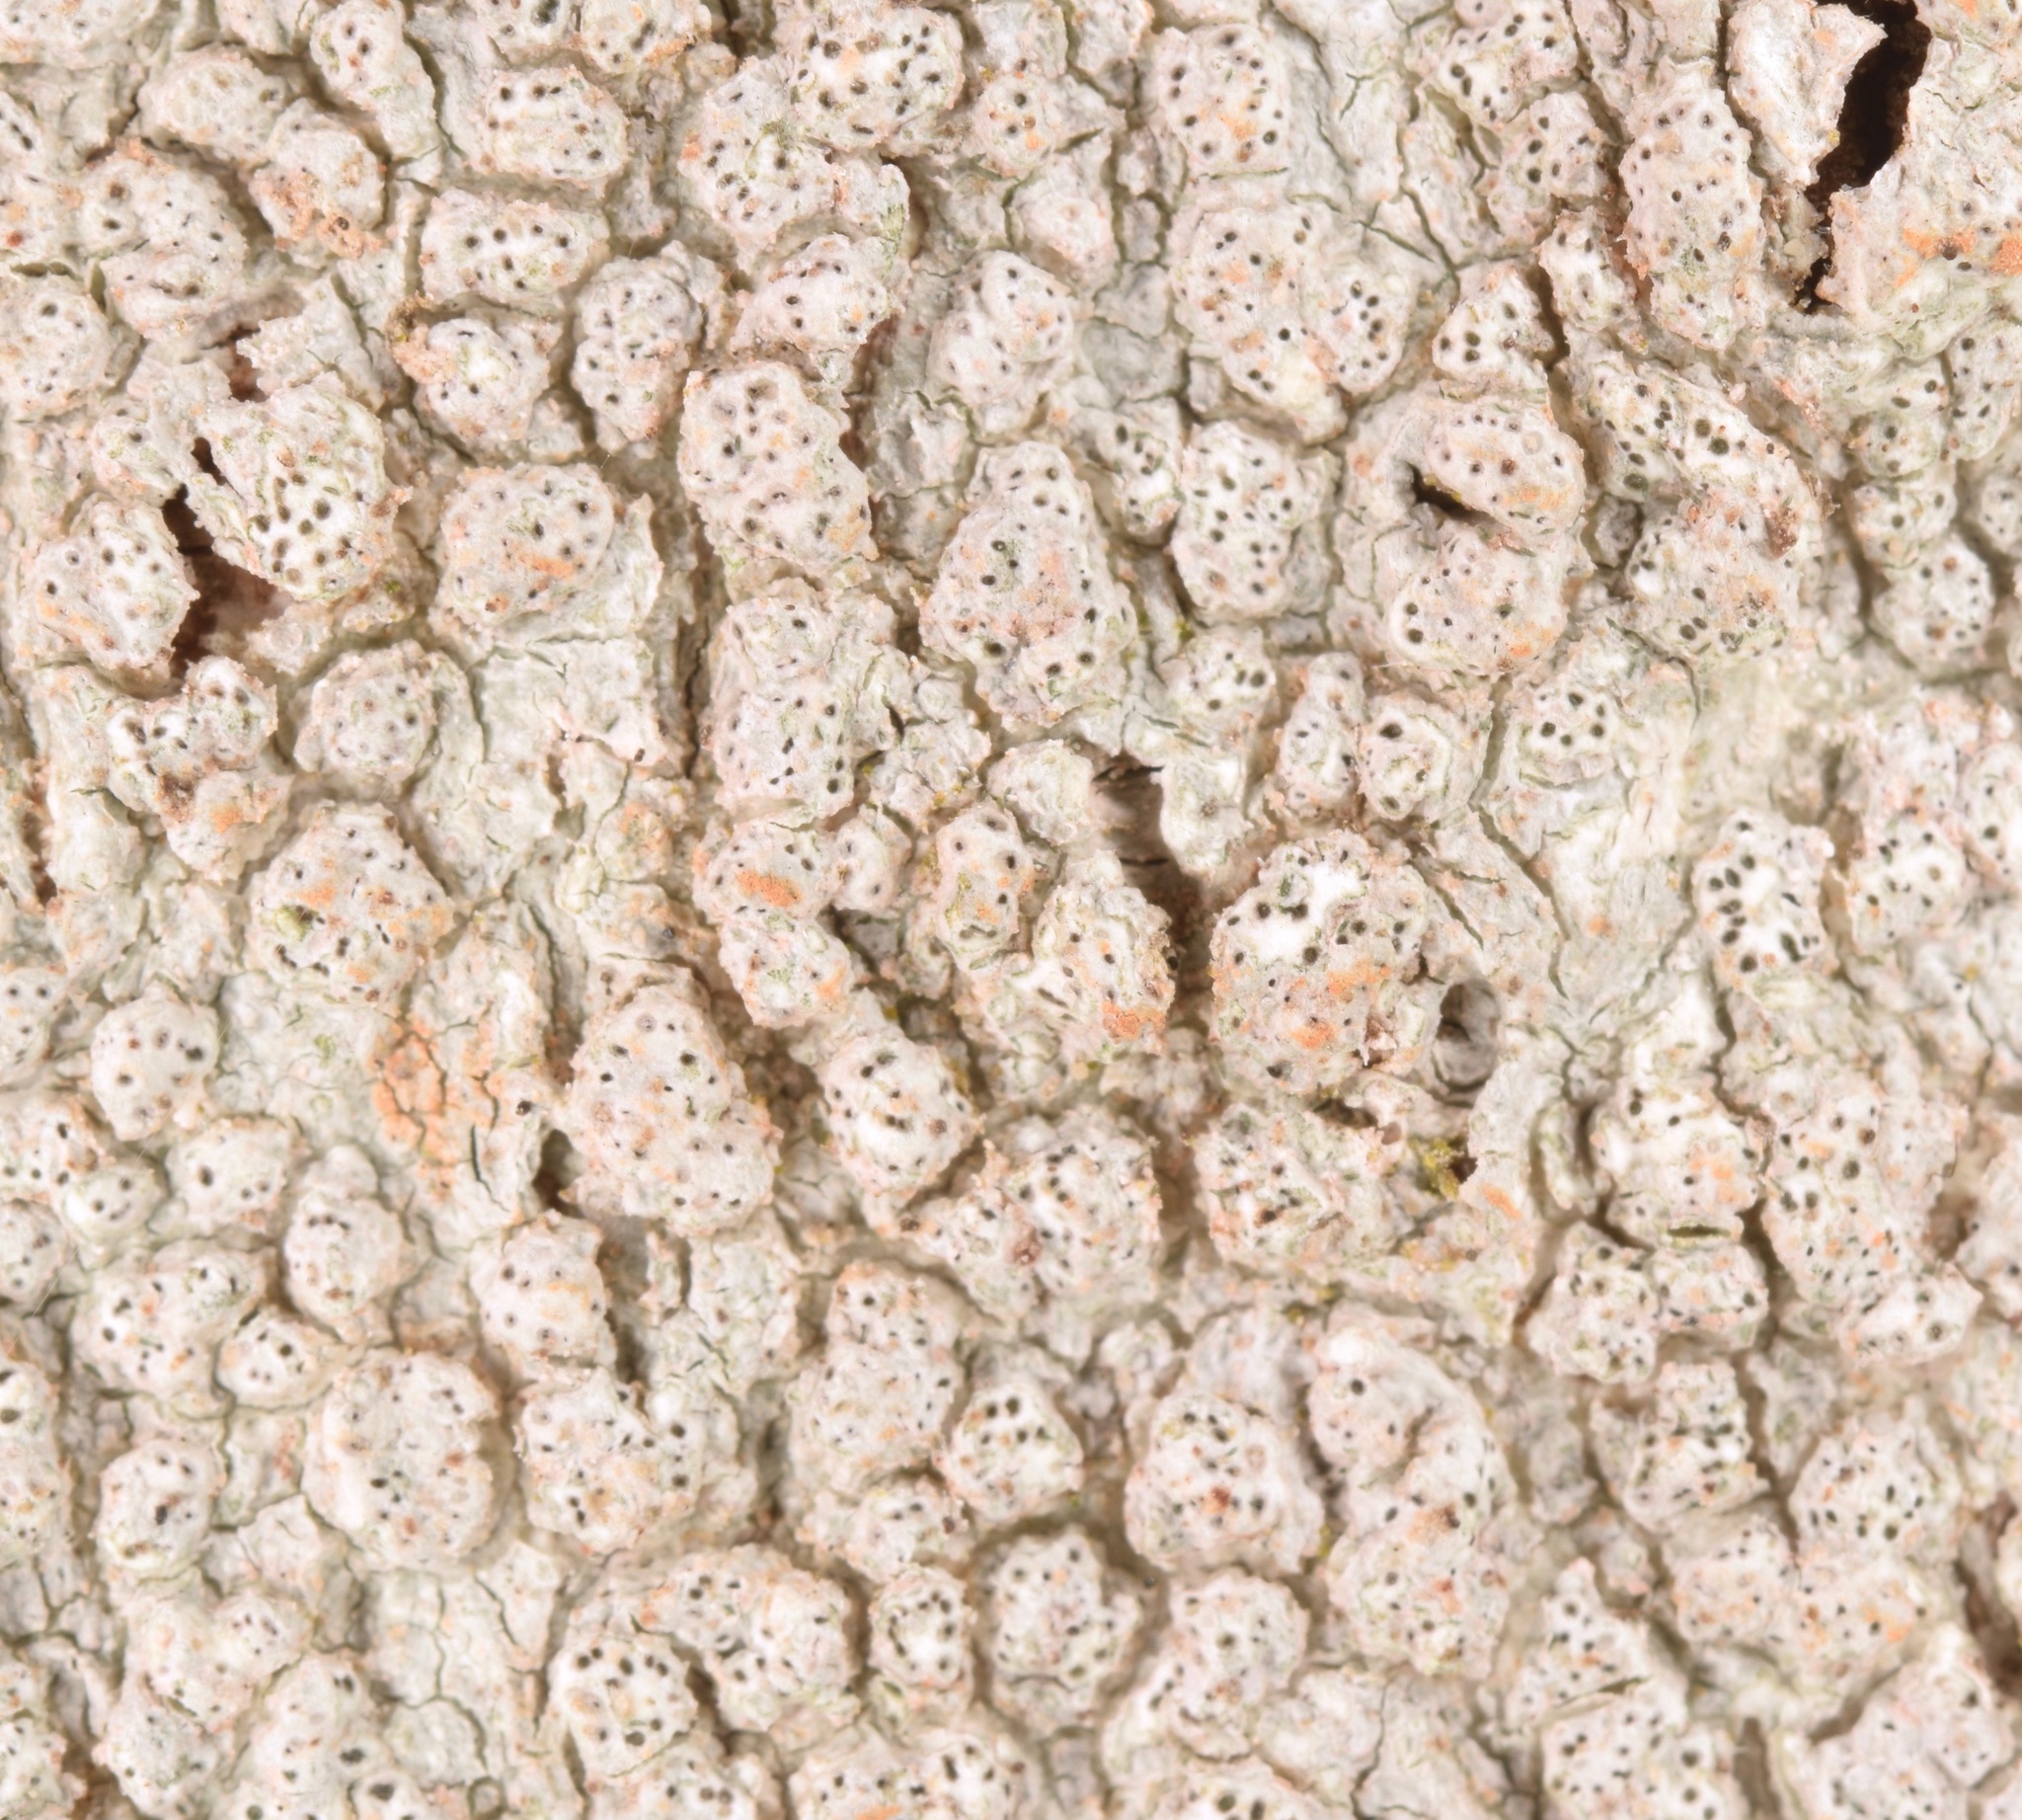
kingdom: Fungi
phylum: Ascomycota
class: Lecanoromycetes
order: Pertusariales
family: Pertusariaceae
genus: Pertusaria
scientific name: Pertusaria subpertusa
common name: Mesa wart lichen
